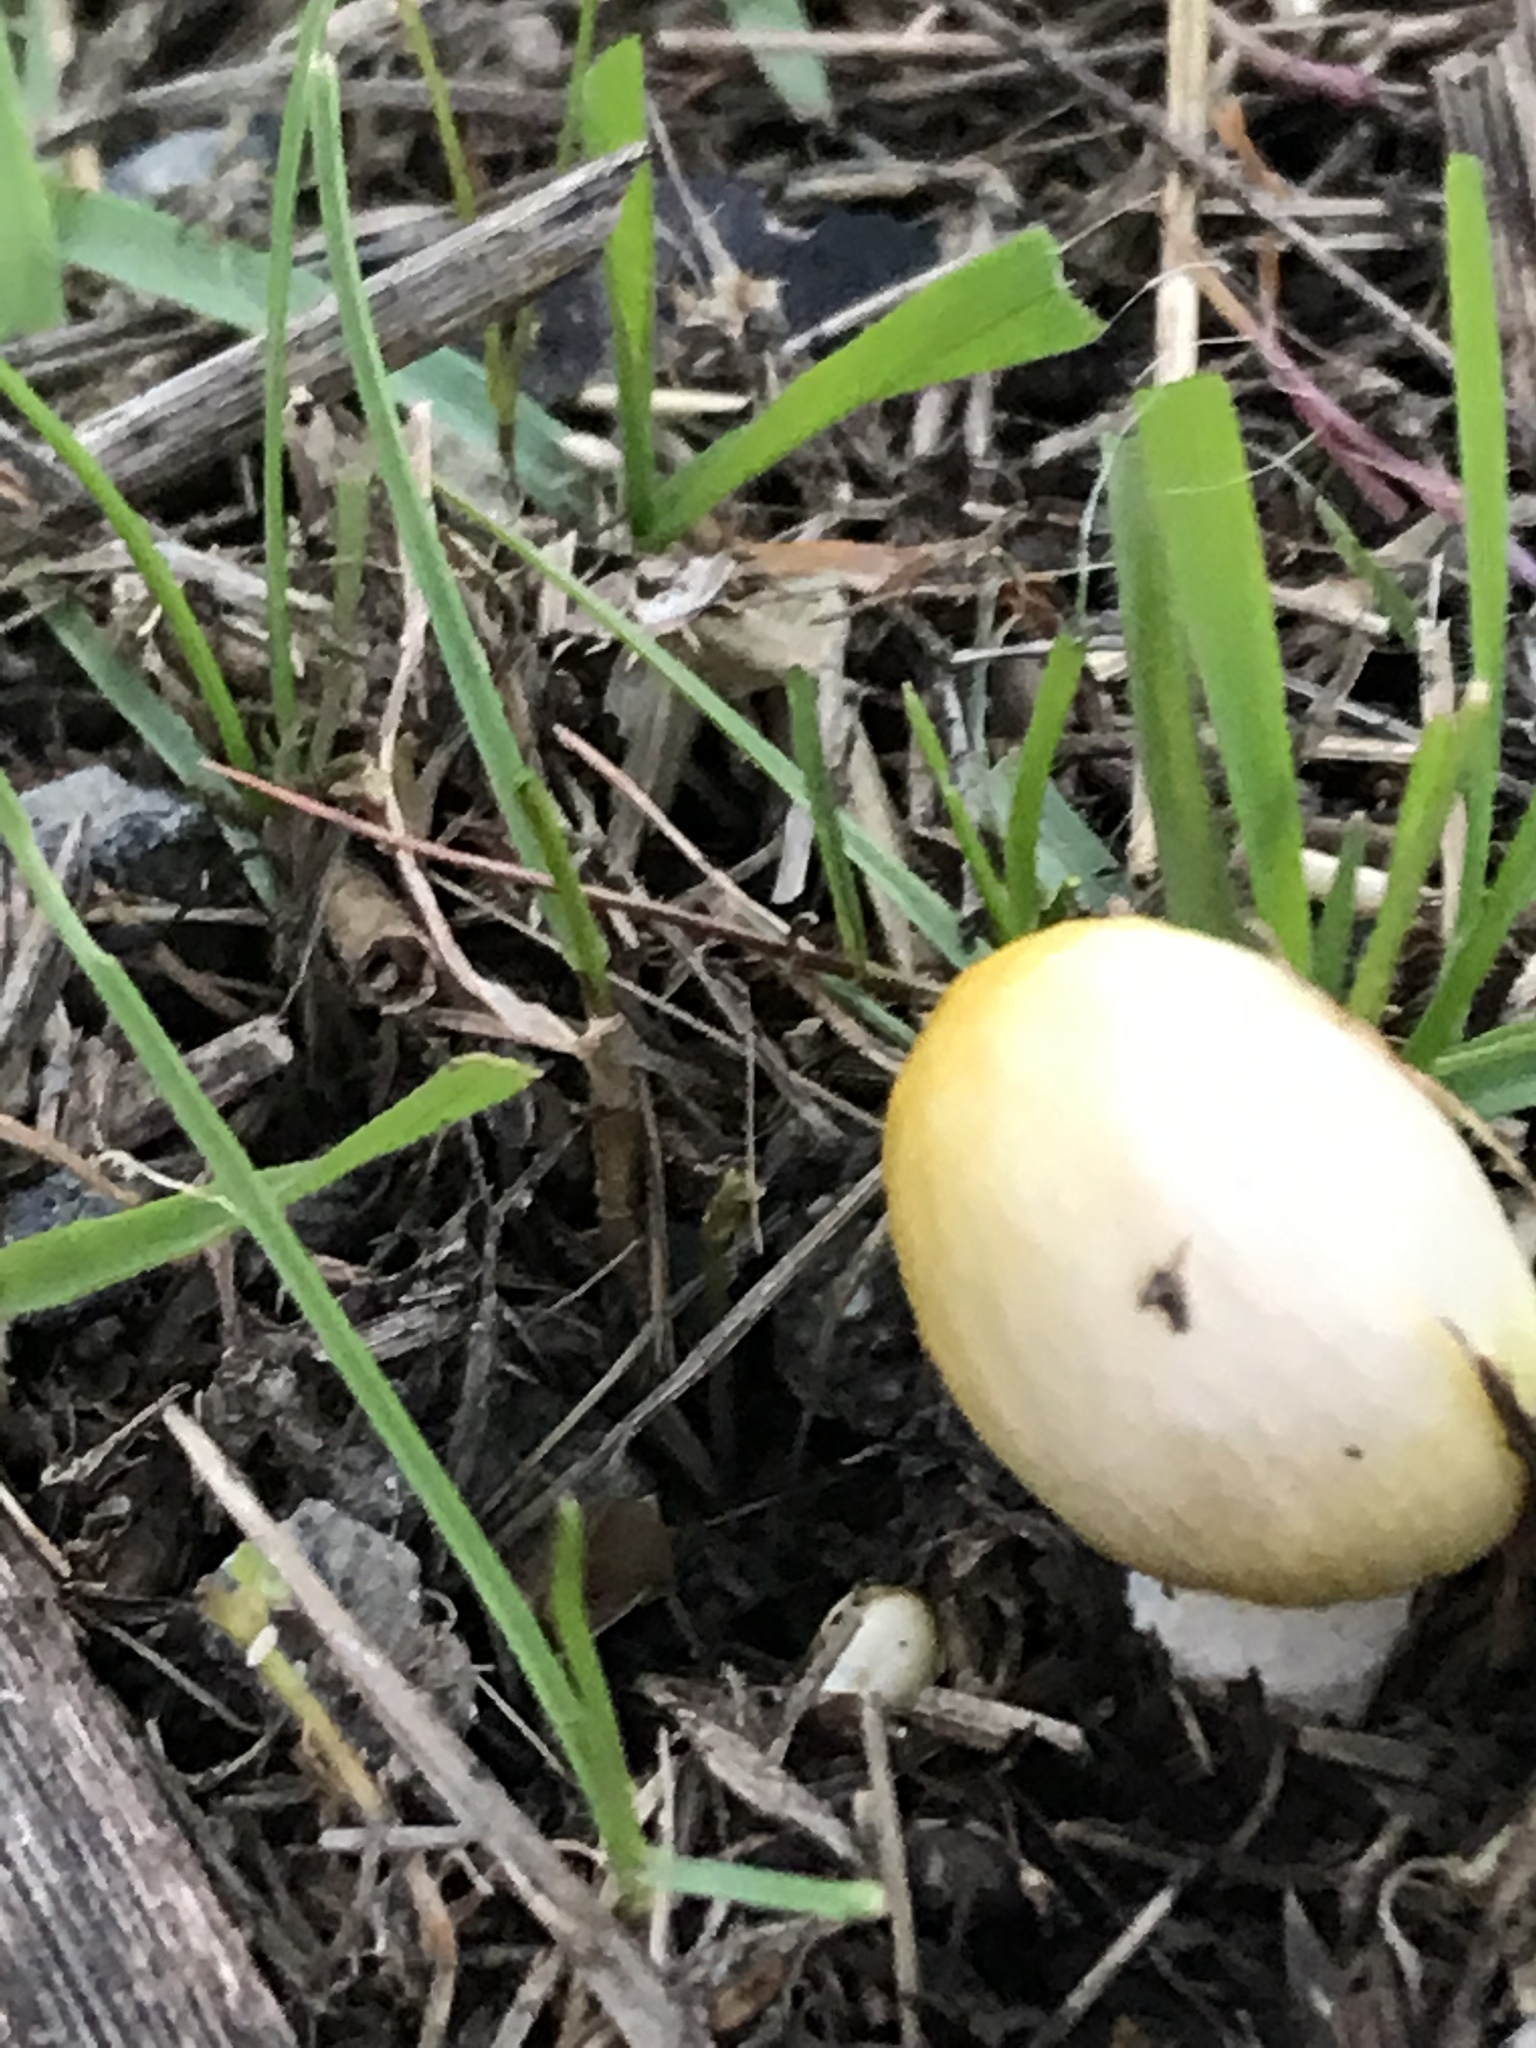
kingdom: Fungi
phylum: Basidiomycota
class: Agaricomycetes
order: Agaricales
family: Bolbitiaceae
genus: Bolbitius
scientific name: Bolbitius titubans
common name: Yellow fieldcap
